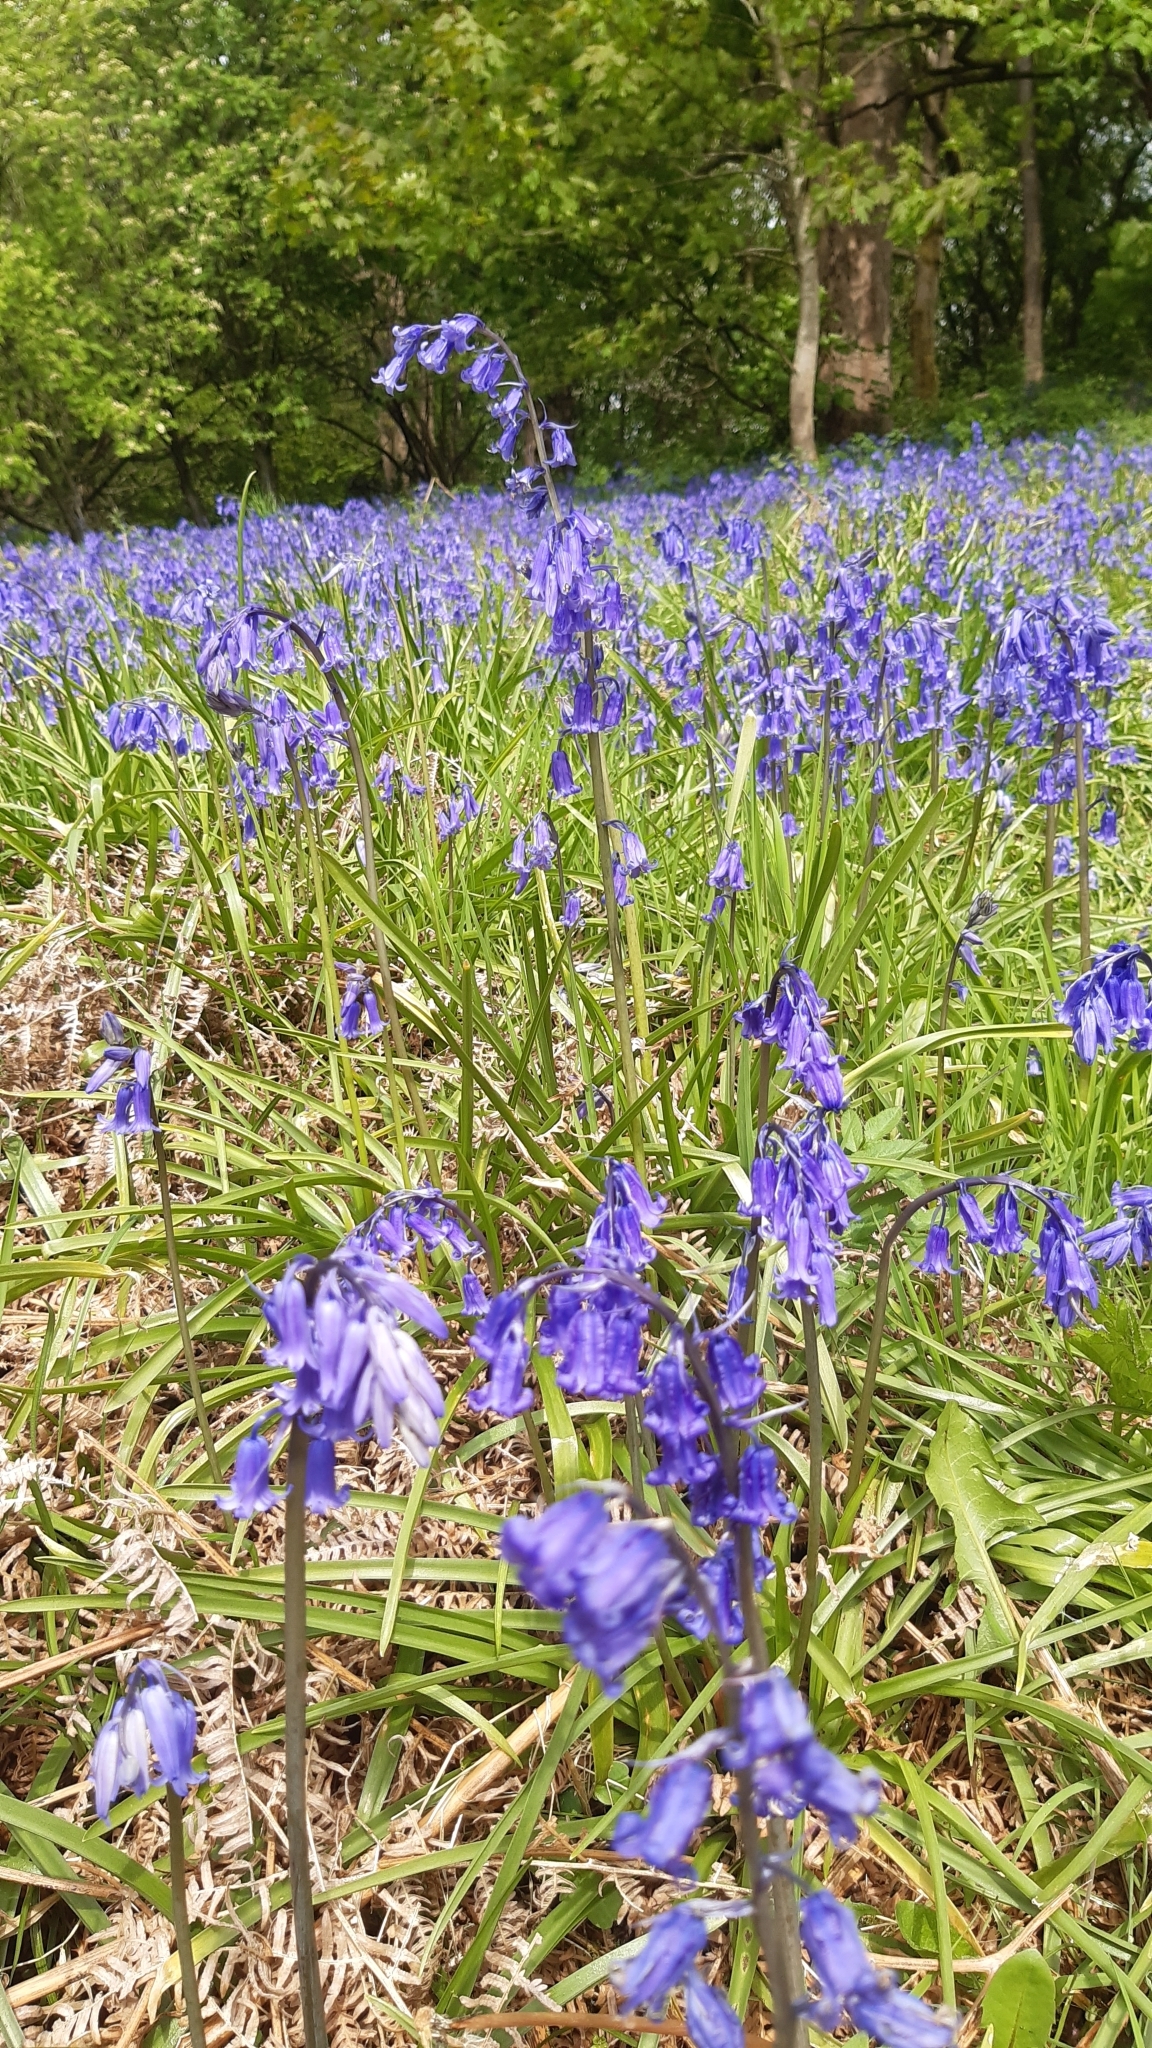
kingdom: Plantae
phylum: Tracheophyta
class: Liliopsida
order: Asparagales
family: Asparagaceae
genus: Hyacinthoides
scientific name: Hyacinthoides non-scripta
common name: Bluebell
